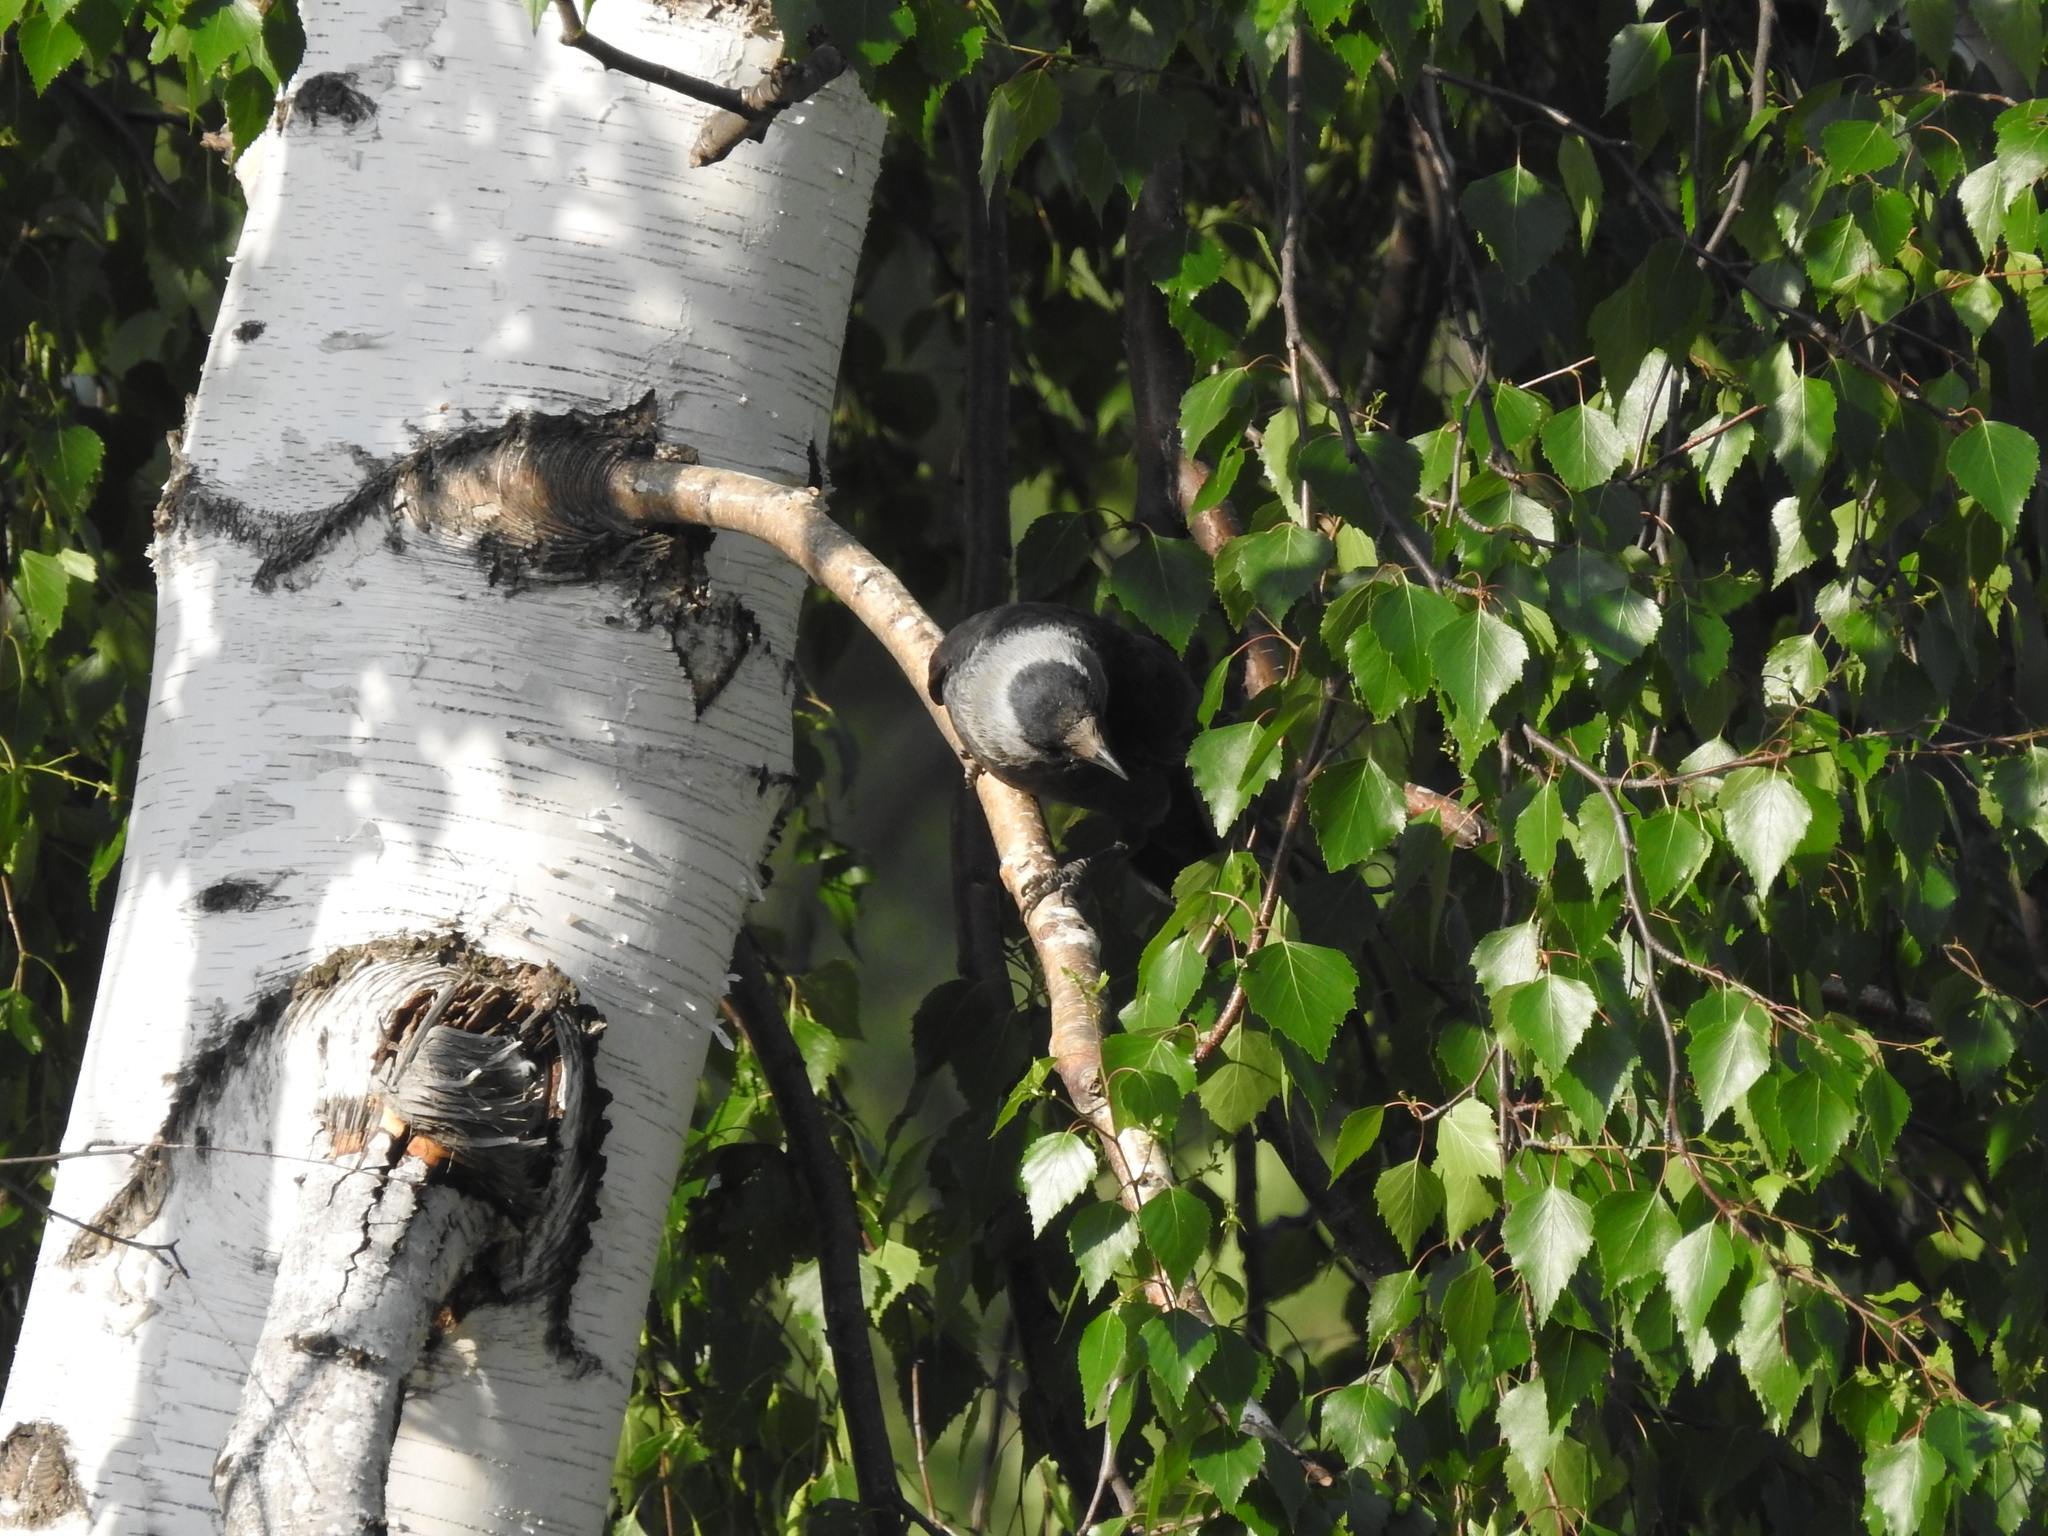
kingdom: Animalia
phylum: Chordata
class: Aves
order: Passeriformes
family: Corvidae
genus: Coloeus
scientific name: Coloeus monedula
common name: Western jackdaw
